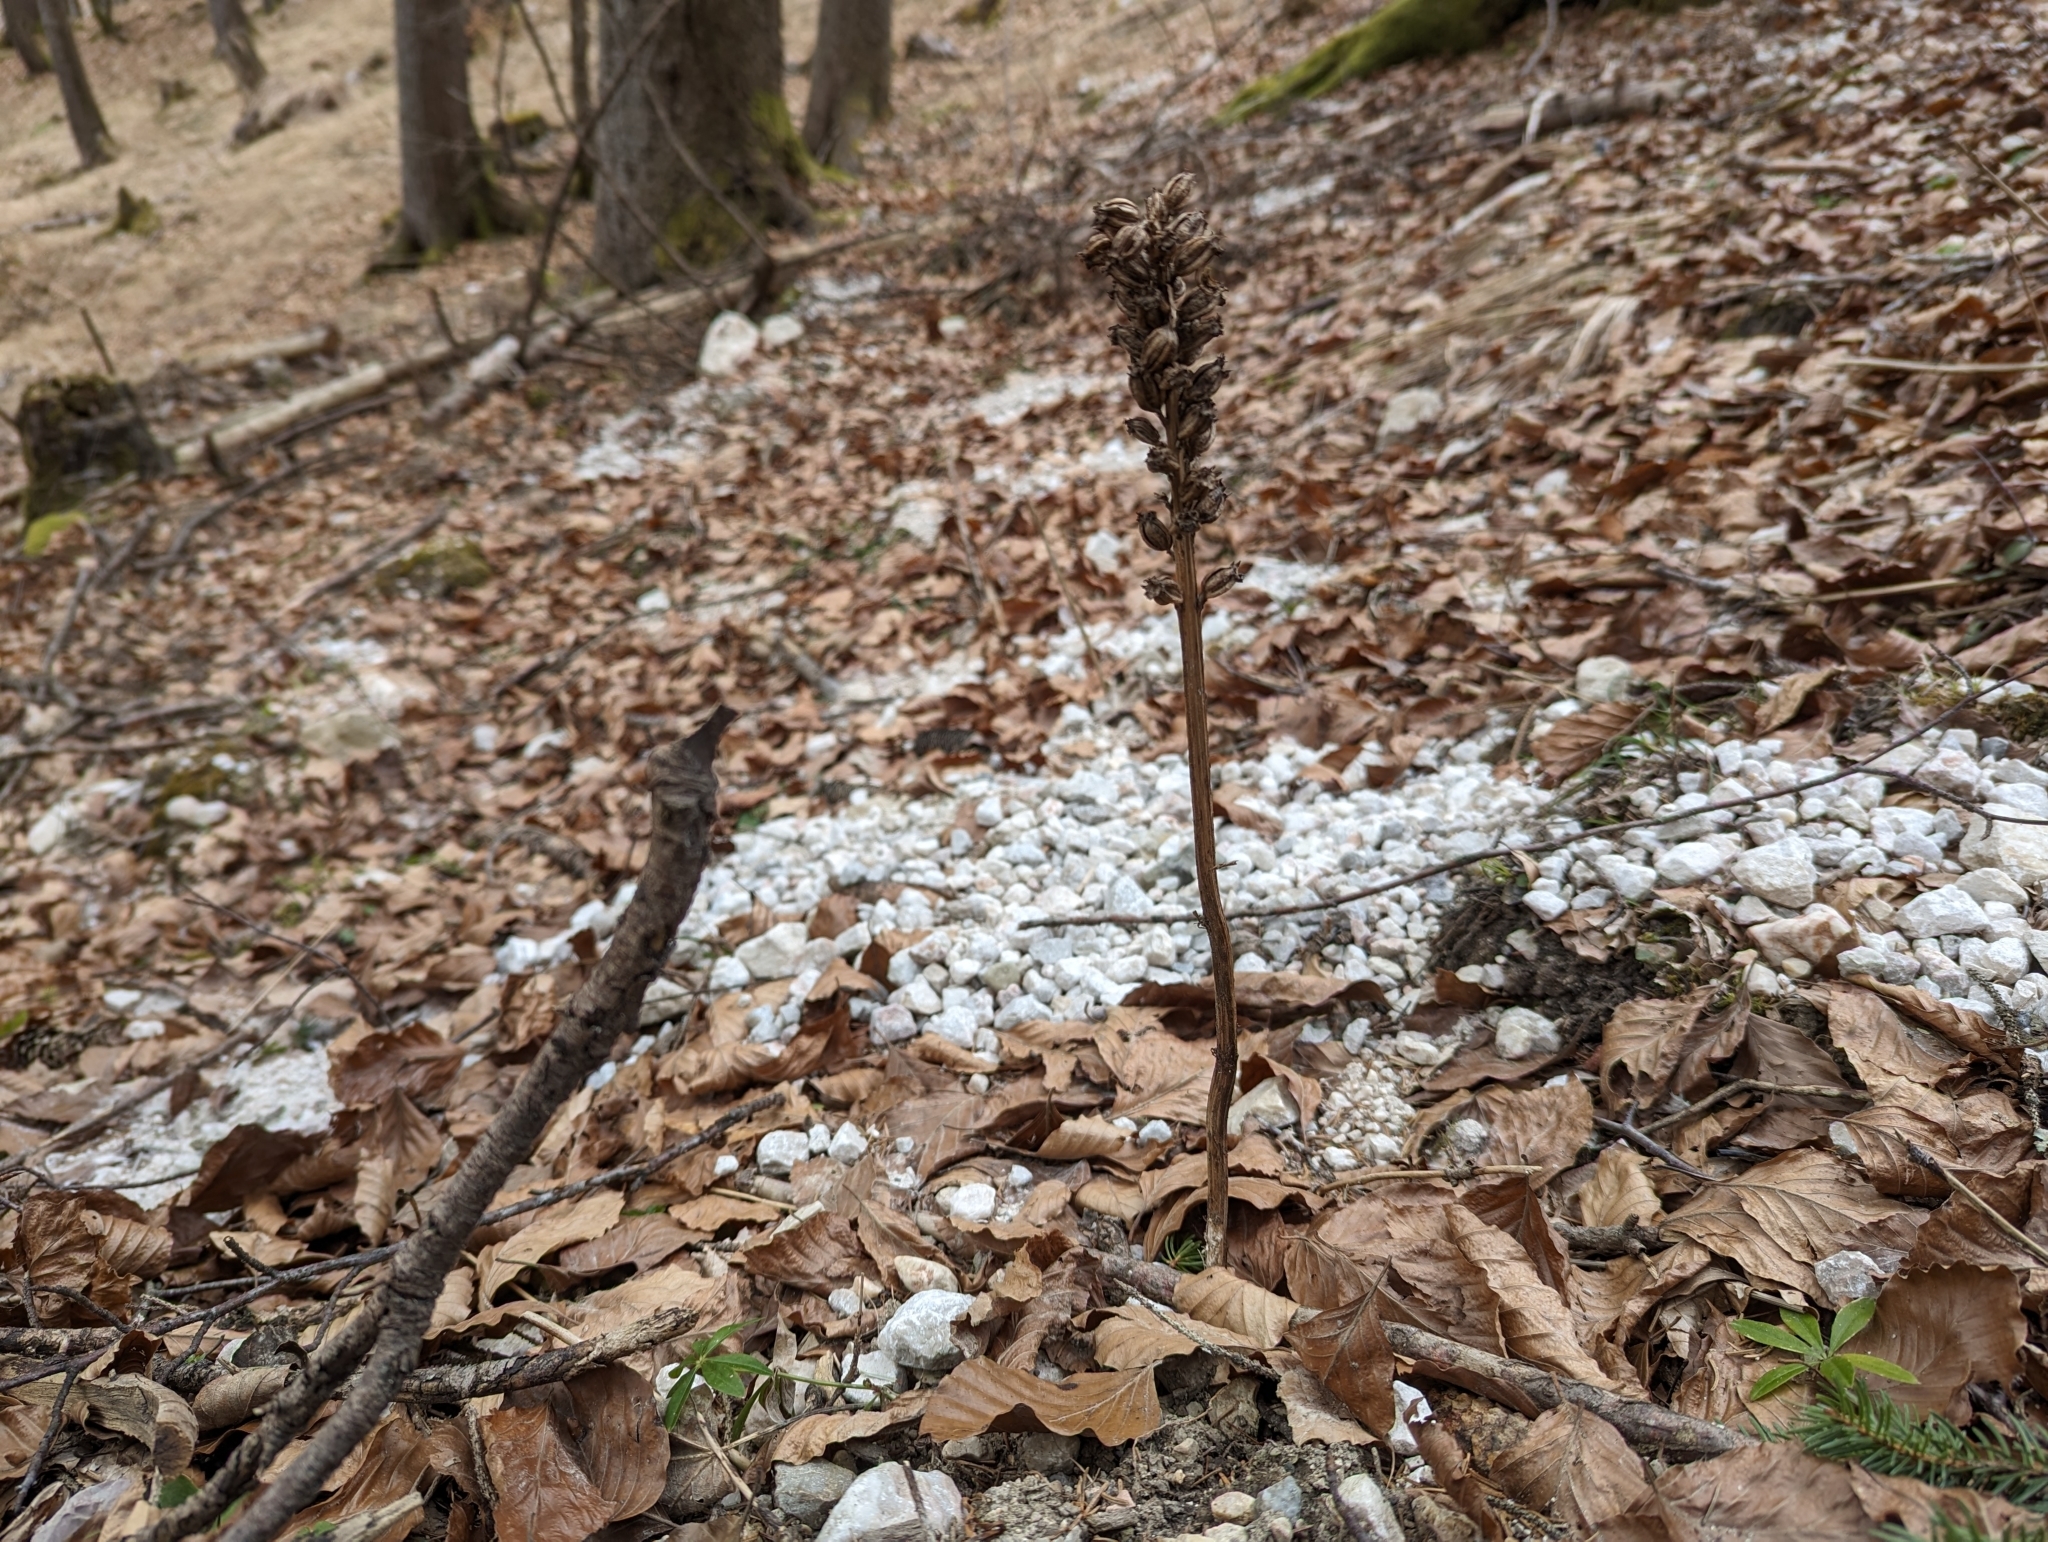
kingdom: Plantae
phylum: Tracheophyta
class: Liliopsida
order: Asparagales
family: Orchidaceae
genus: Neottia
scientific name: Neottia nidus-avis
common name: Bird's-nest orchid
